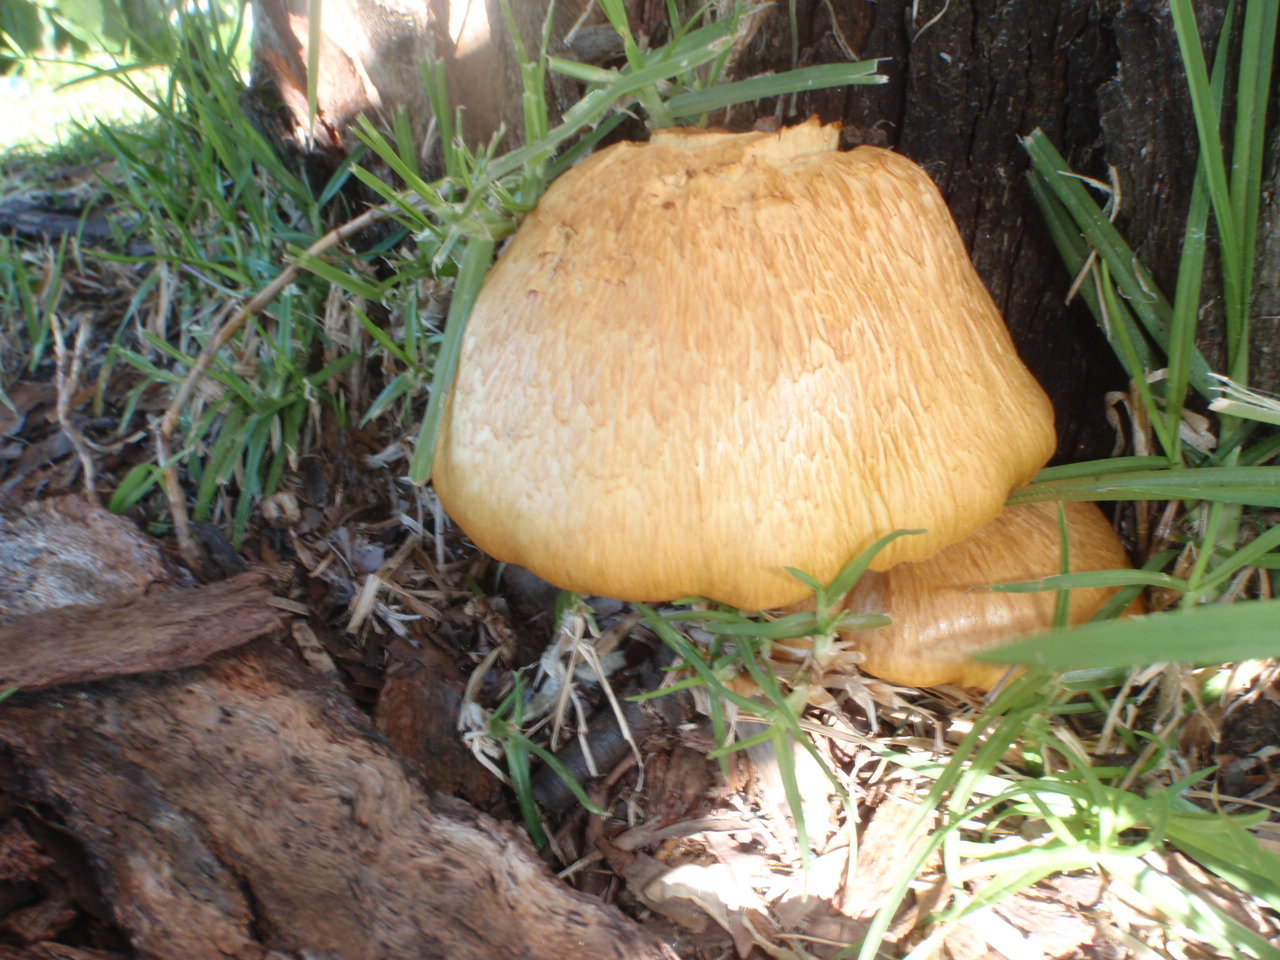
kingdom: Fungi
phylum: Basidiomycota
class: Agaricomycetes
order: Agaricales
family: Hymenogastraceae
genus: Gymnopilus
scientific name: Gymnopilus junonius
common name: Spectacular rustgill
